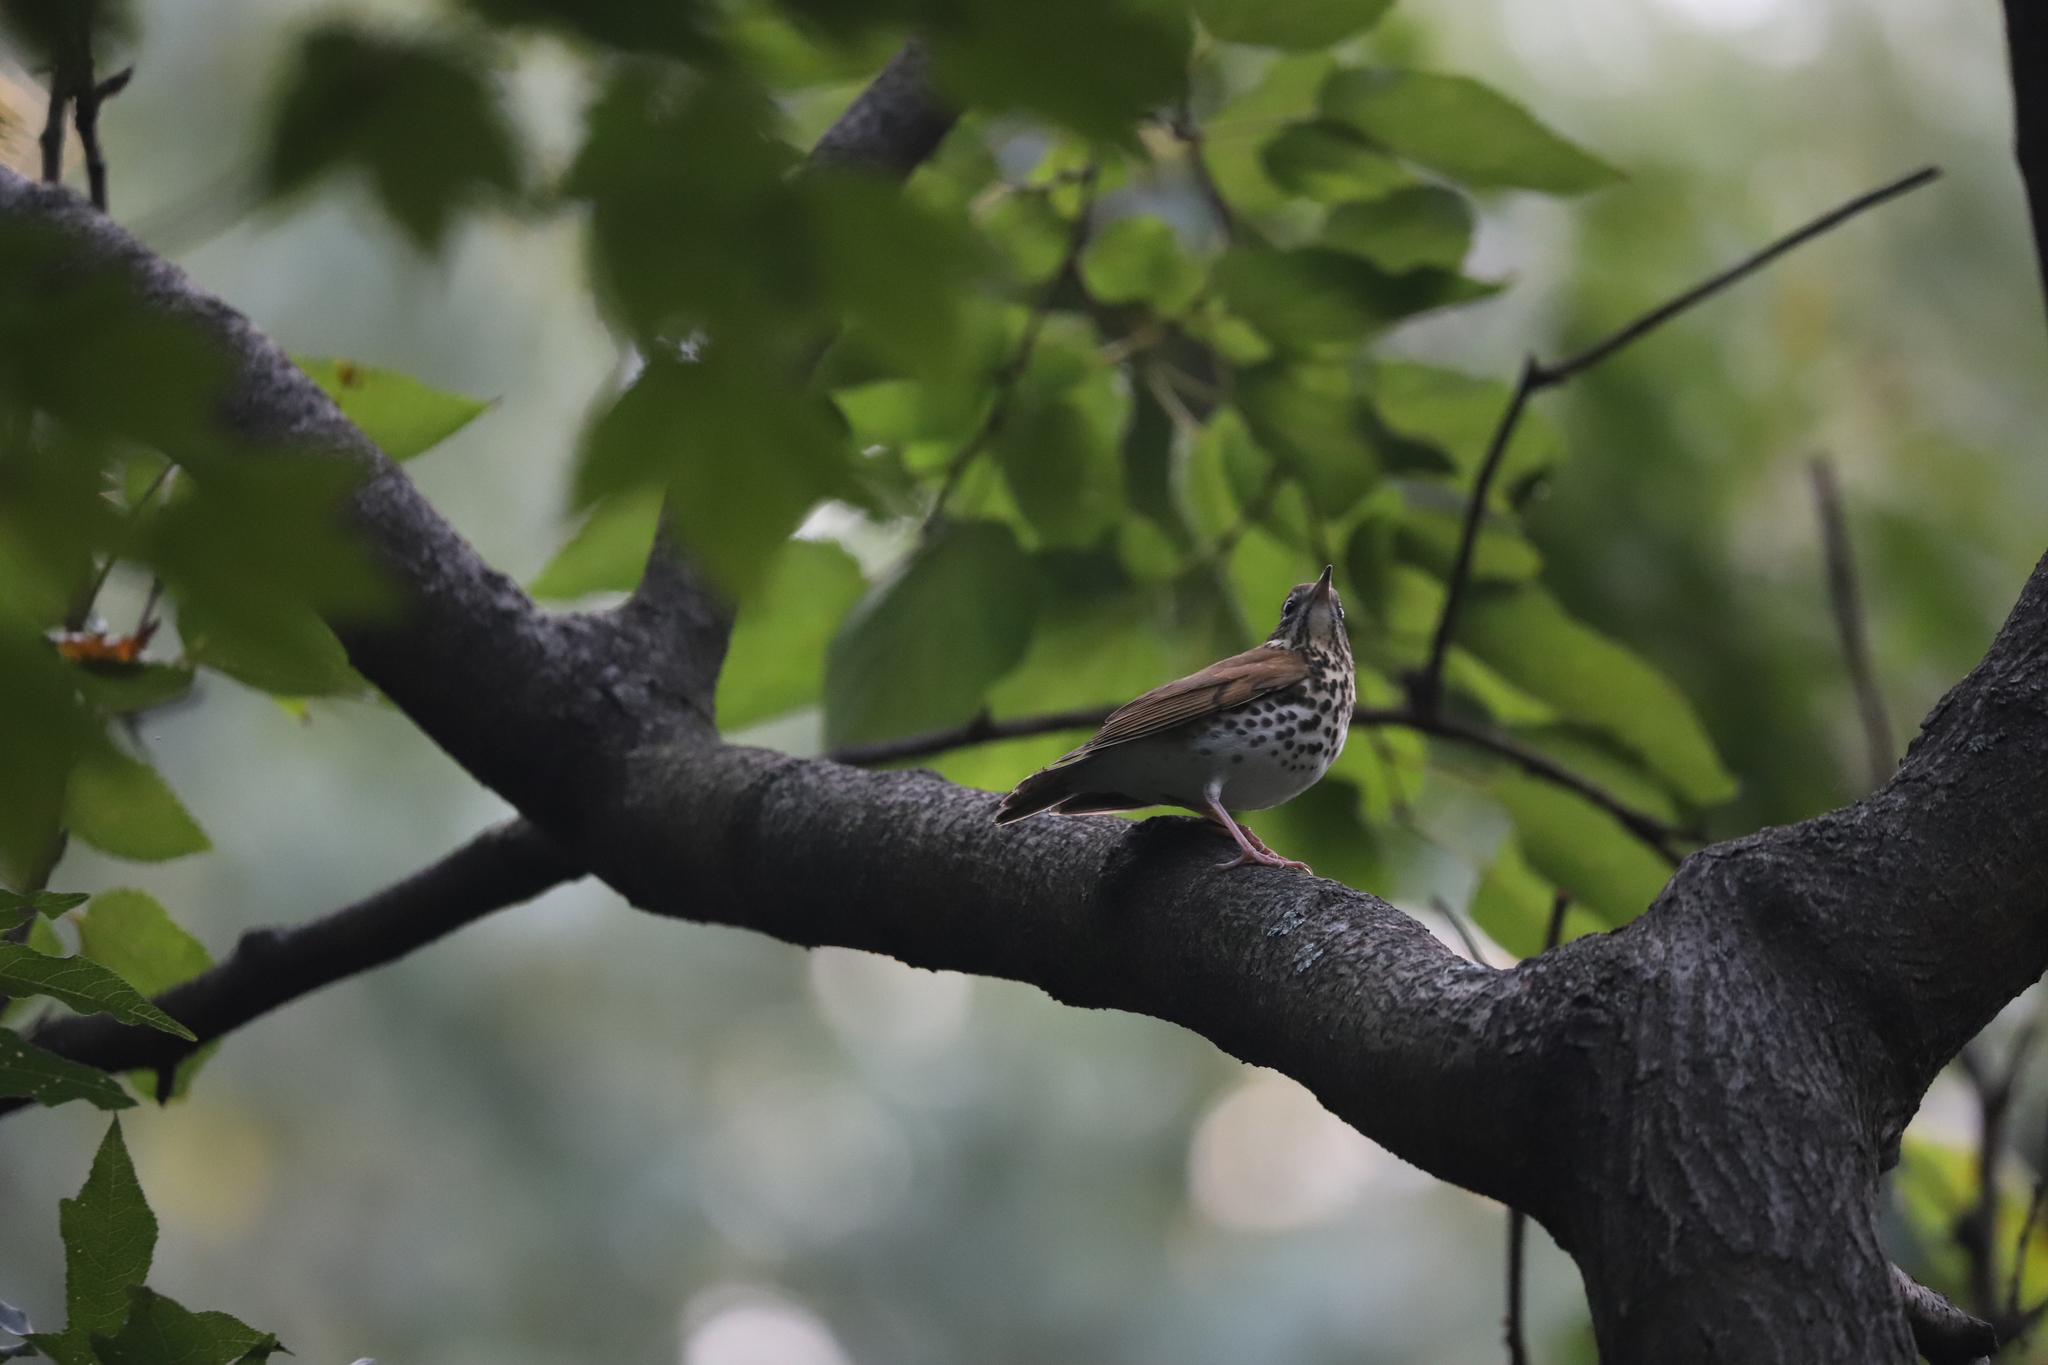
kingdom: Animalia
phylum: Chordata
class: Aves
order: Passeriformes
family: Turdidae
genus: Hylocichla
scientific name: Hylocichla mustelina
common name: Wood thrush
